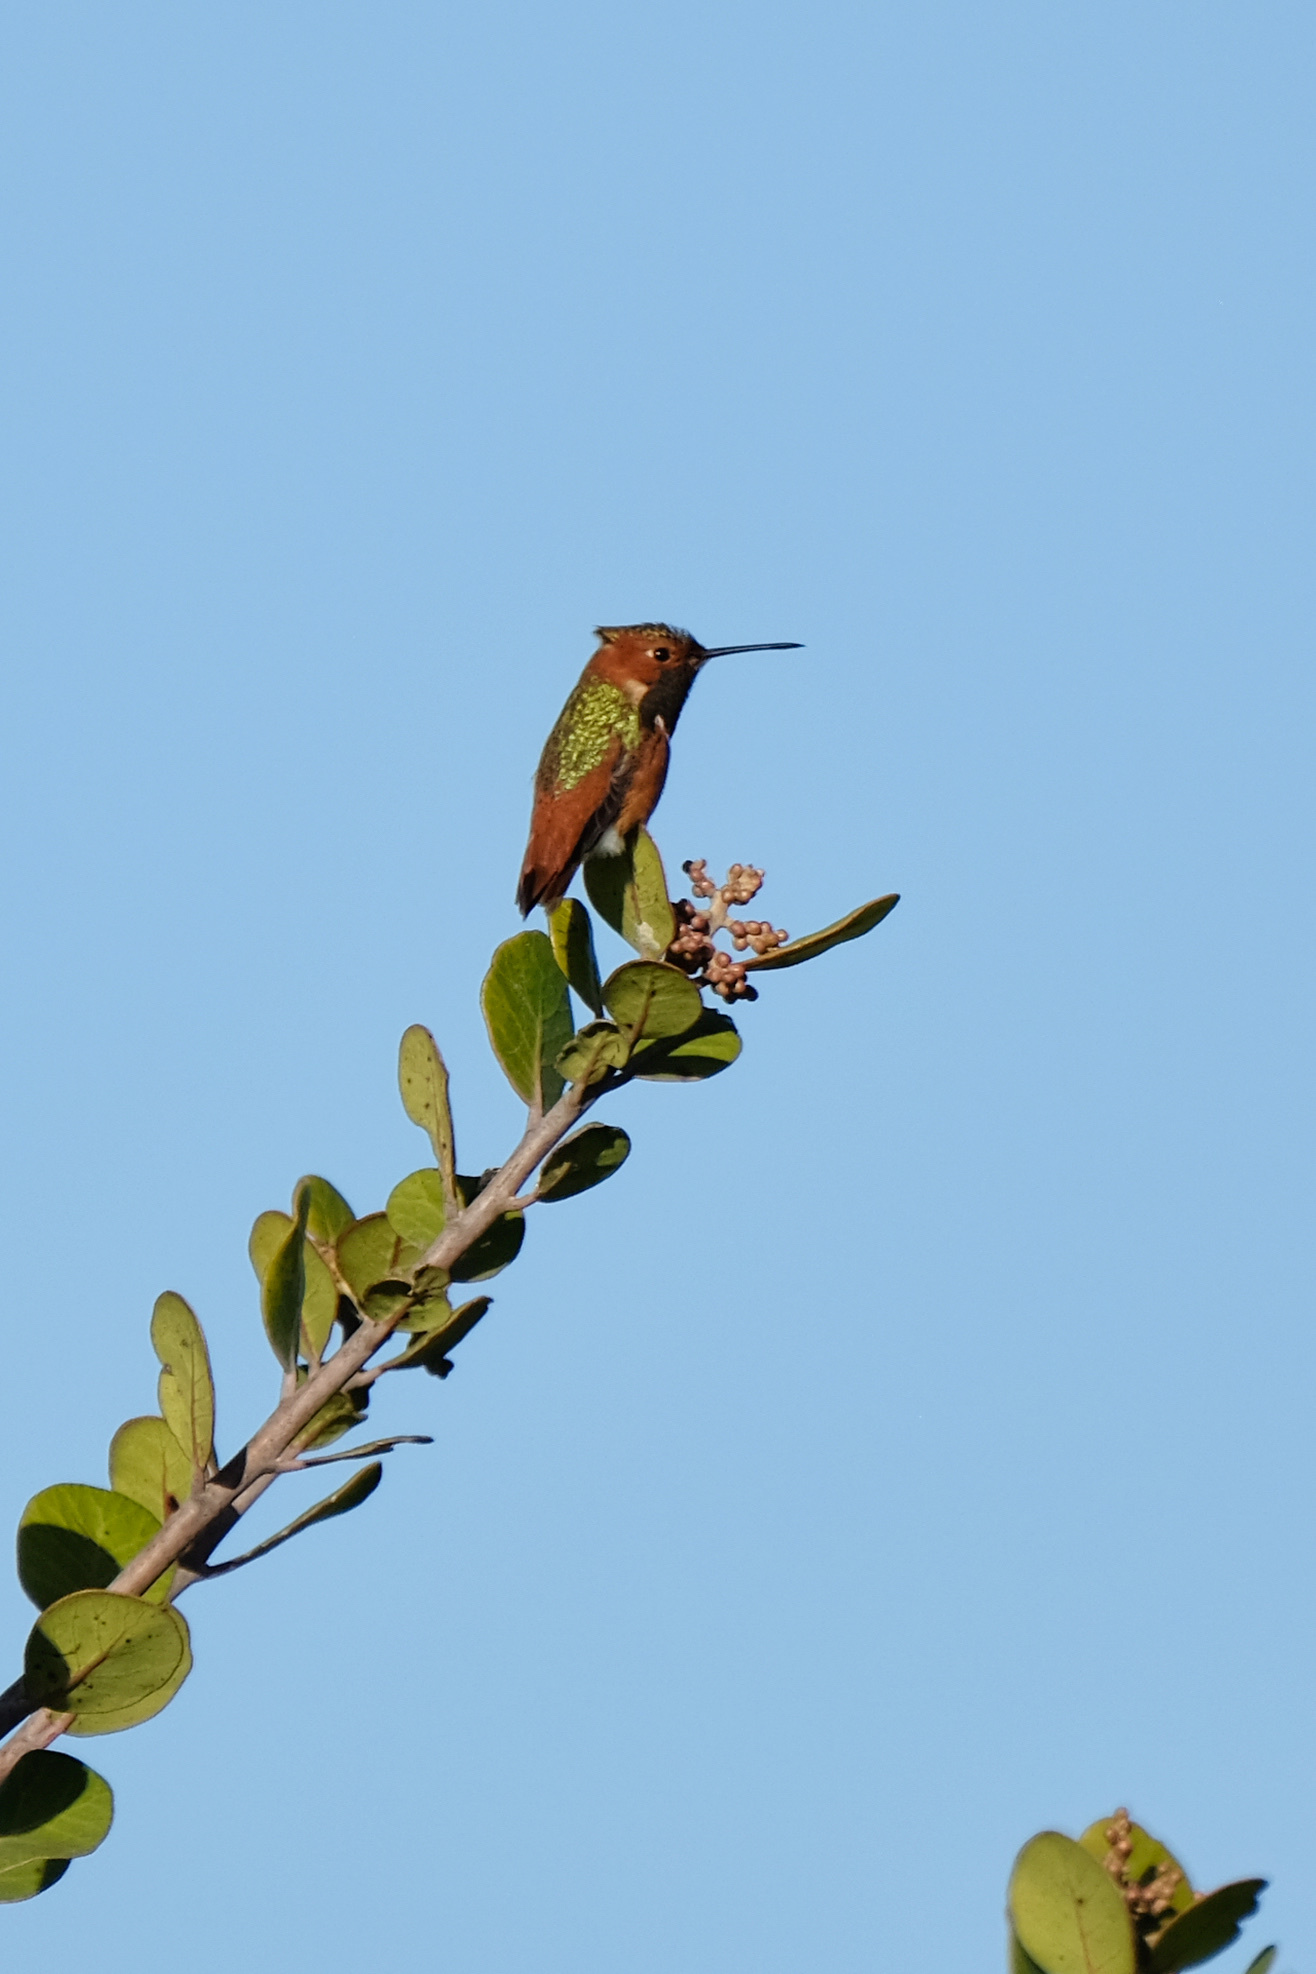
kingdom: Animalia
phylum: Chordata
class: Aves
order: Apodiformes
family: Trochilidae
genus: Selasphorus
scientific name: Selasphorus sasin
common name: Allen's hummingbird
